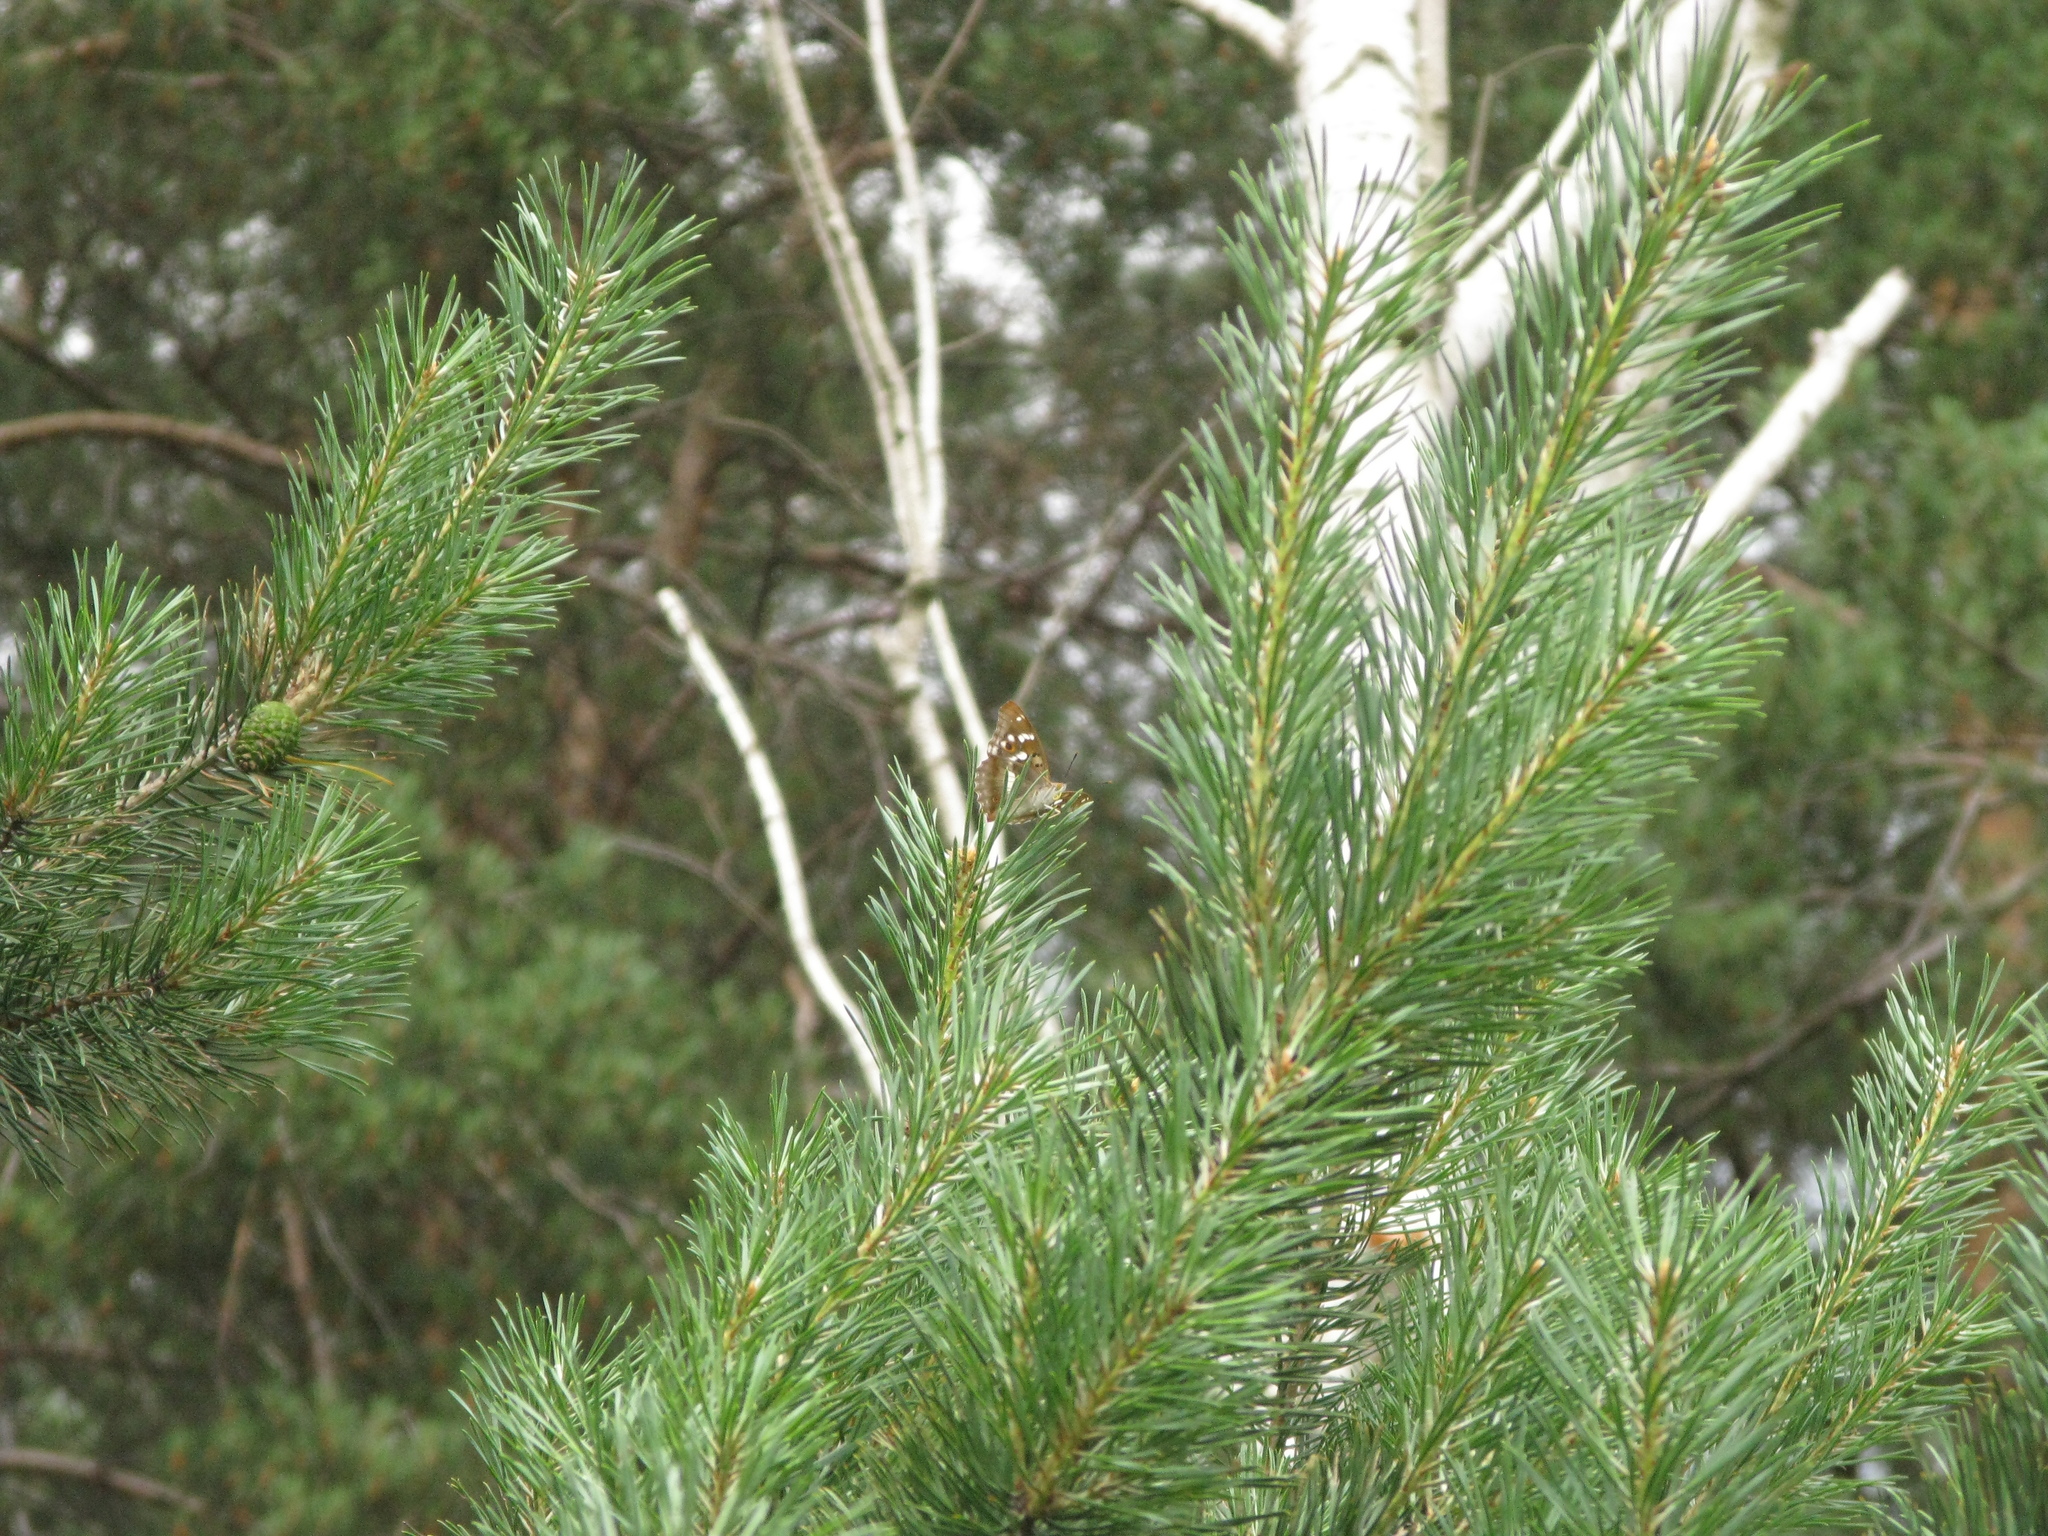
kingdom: Animalia
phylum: Arthropoda
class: Insecta
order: Lepidoptera
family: Nymphalidae
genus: Apatura
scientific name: Apatura ilia
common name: Lesser purple emperor
